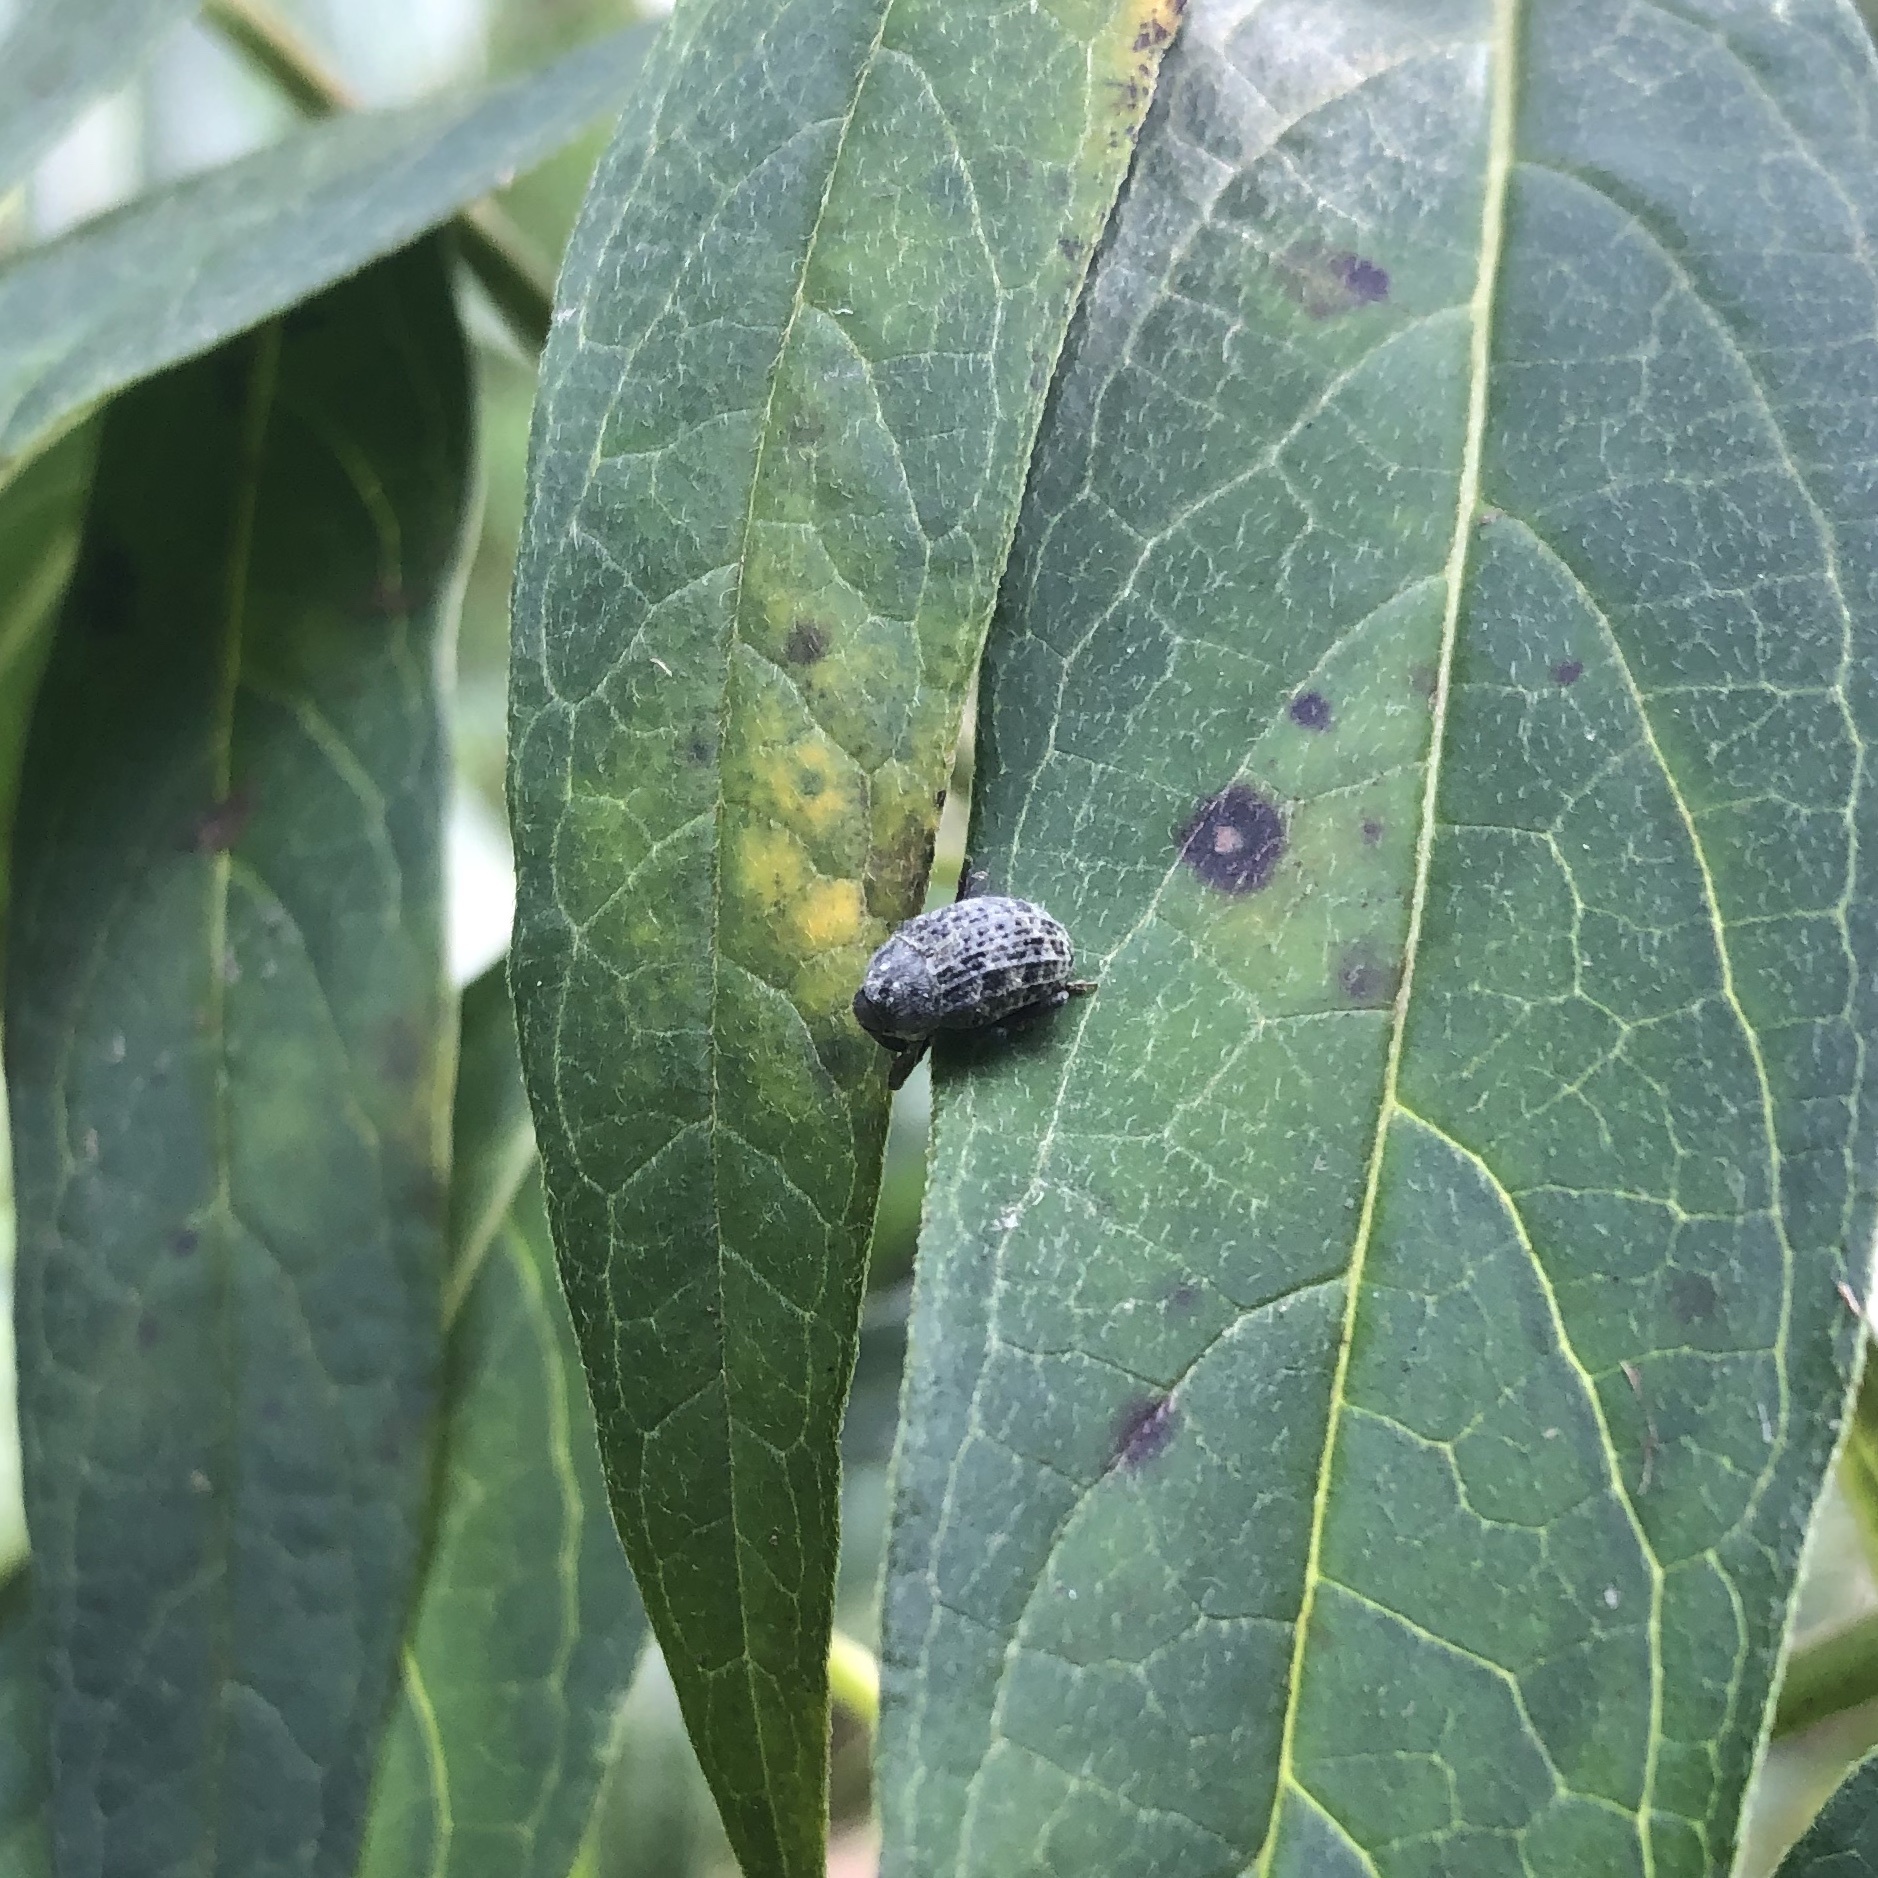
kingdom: Animalia
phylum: Arthropoda
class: Insecta
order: Coleoptera
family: Curculionidae
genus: Rhyssomatus
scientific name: Rhyssomatus lineaticollis
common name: Milkweed stem weevil
